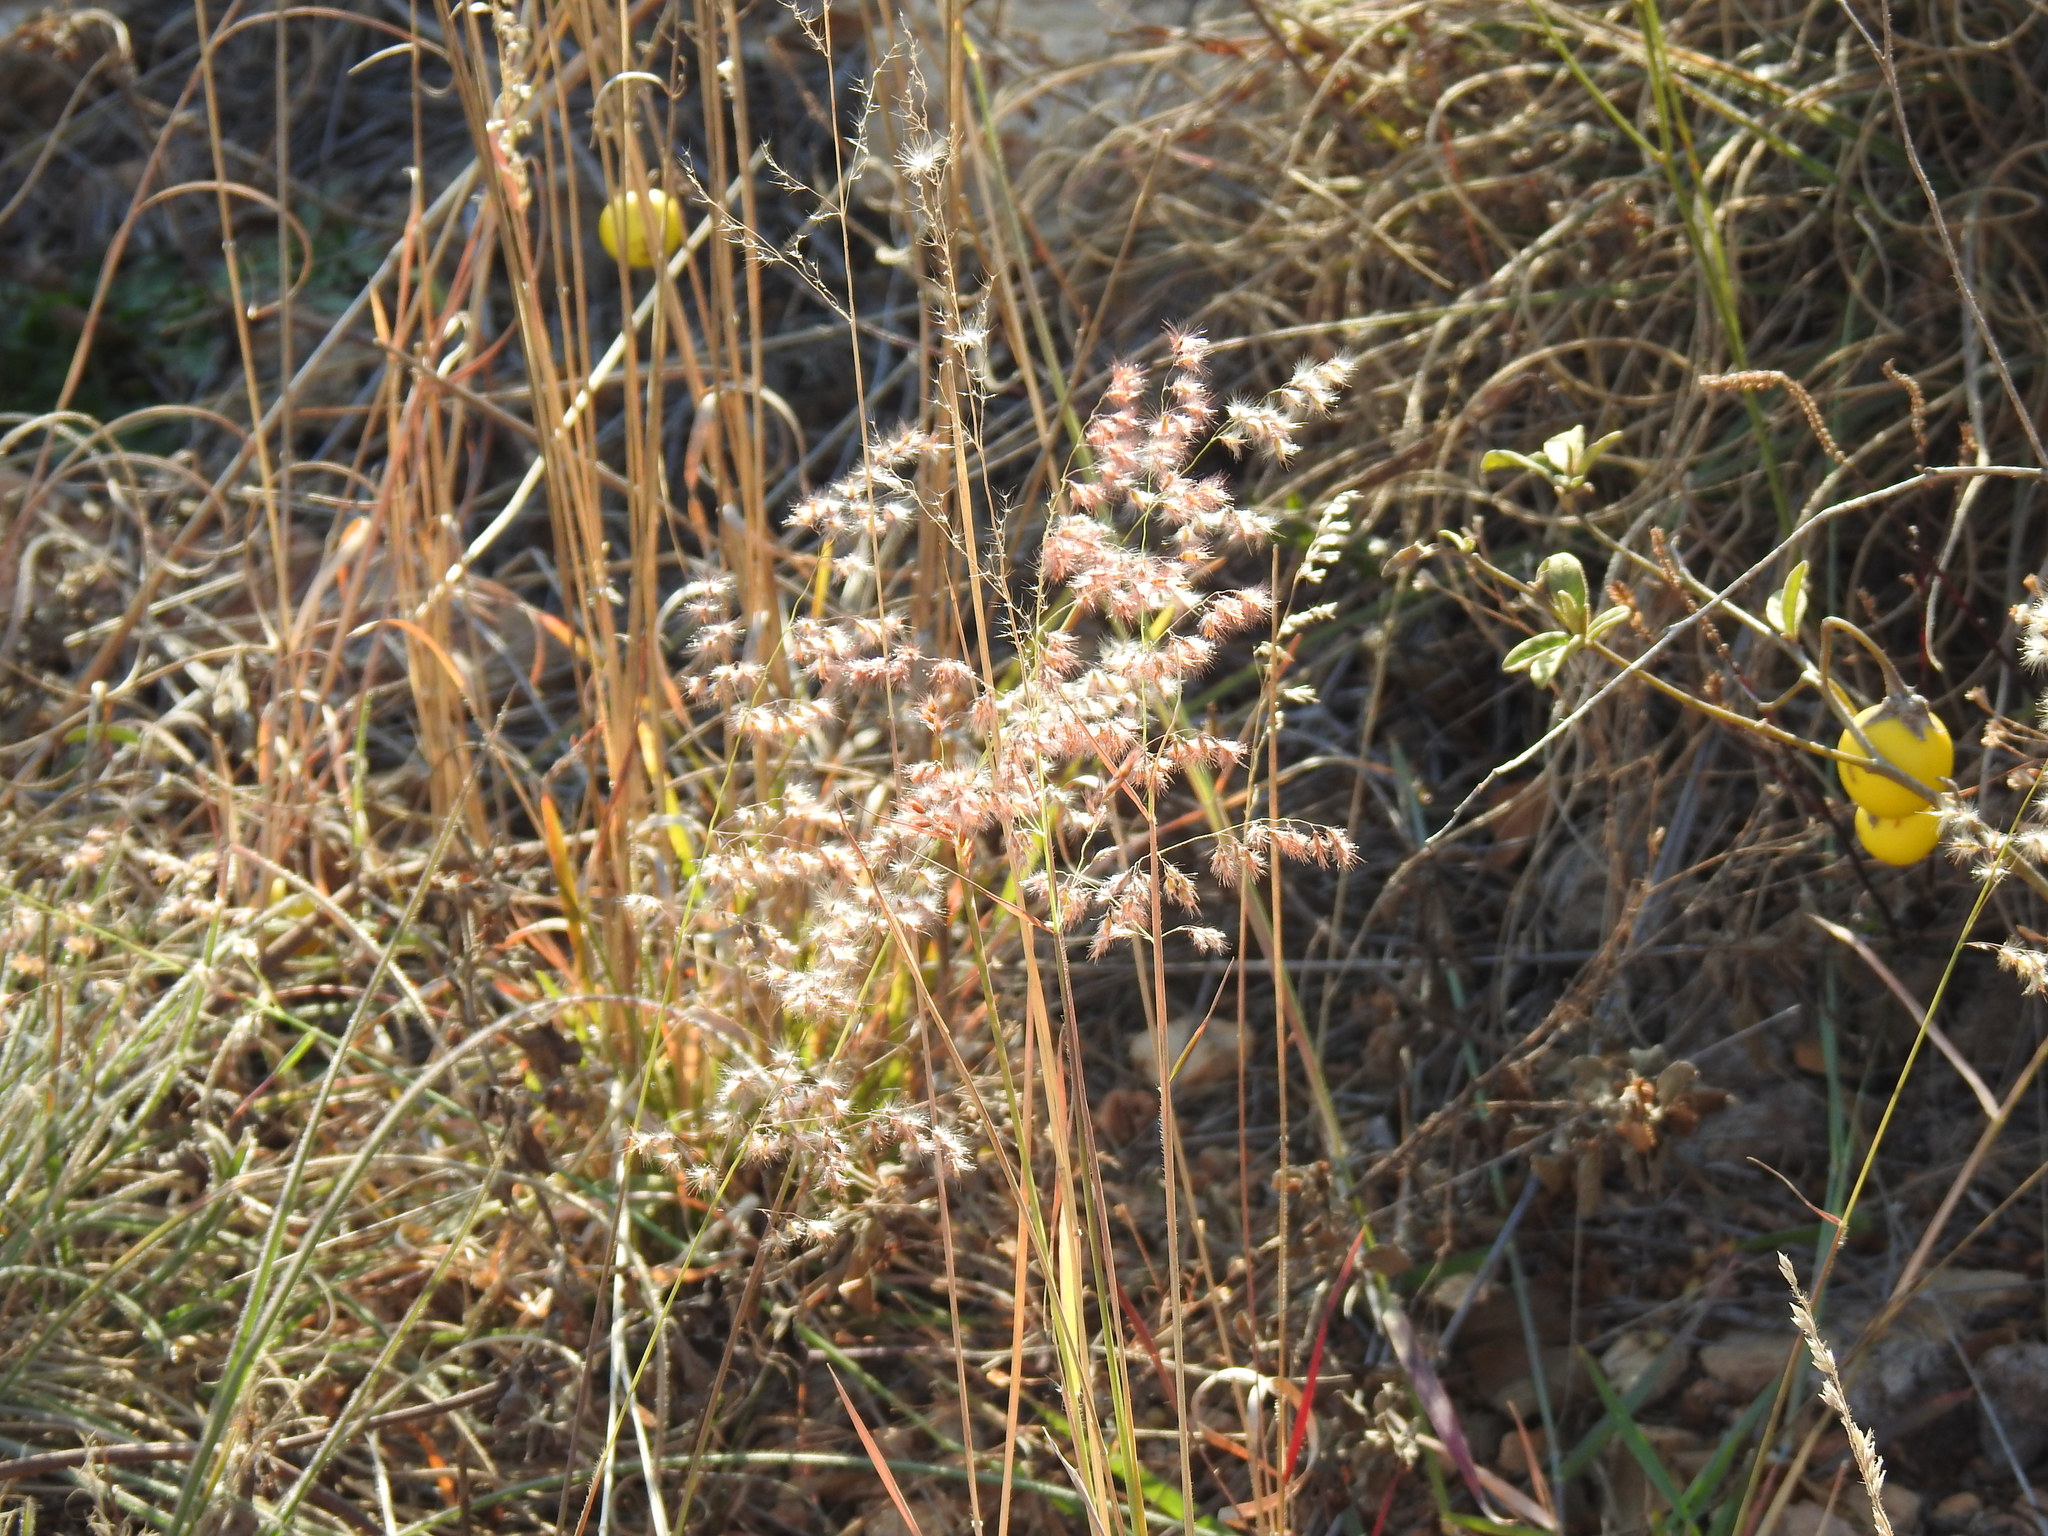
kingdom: Plantae
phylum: Tracheophyta
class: Liliopsida
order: Poales
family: Poaceae
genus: Melinis
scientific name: Melinis repens
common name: Rose natal grass
